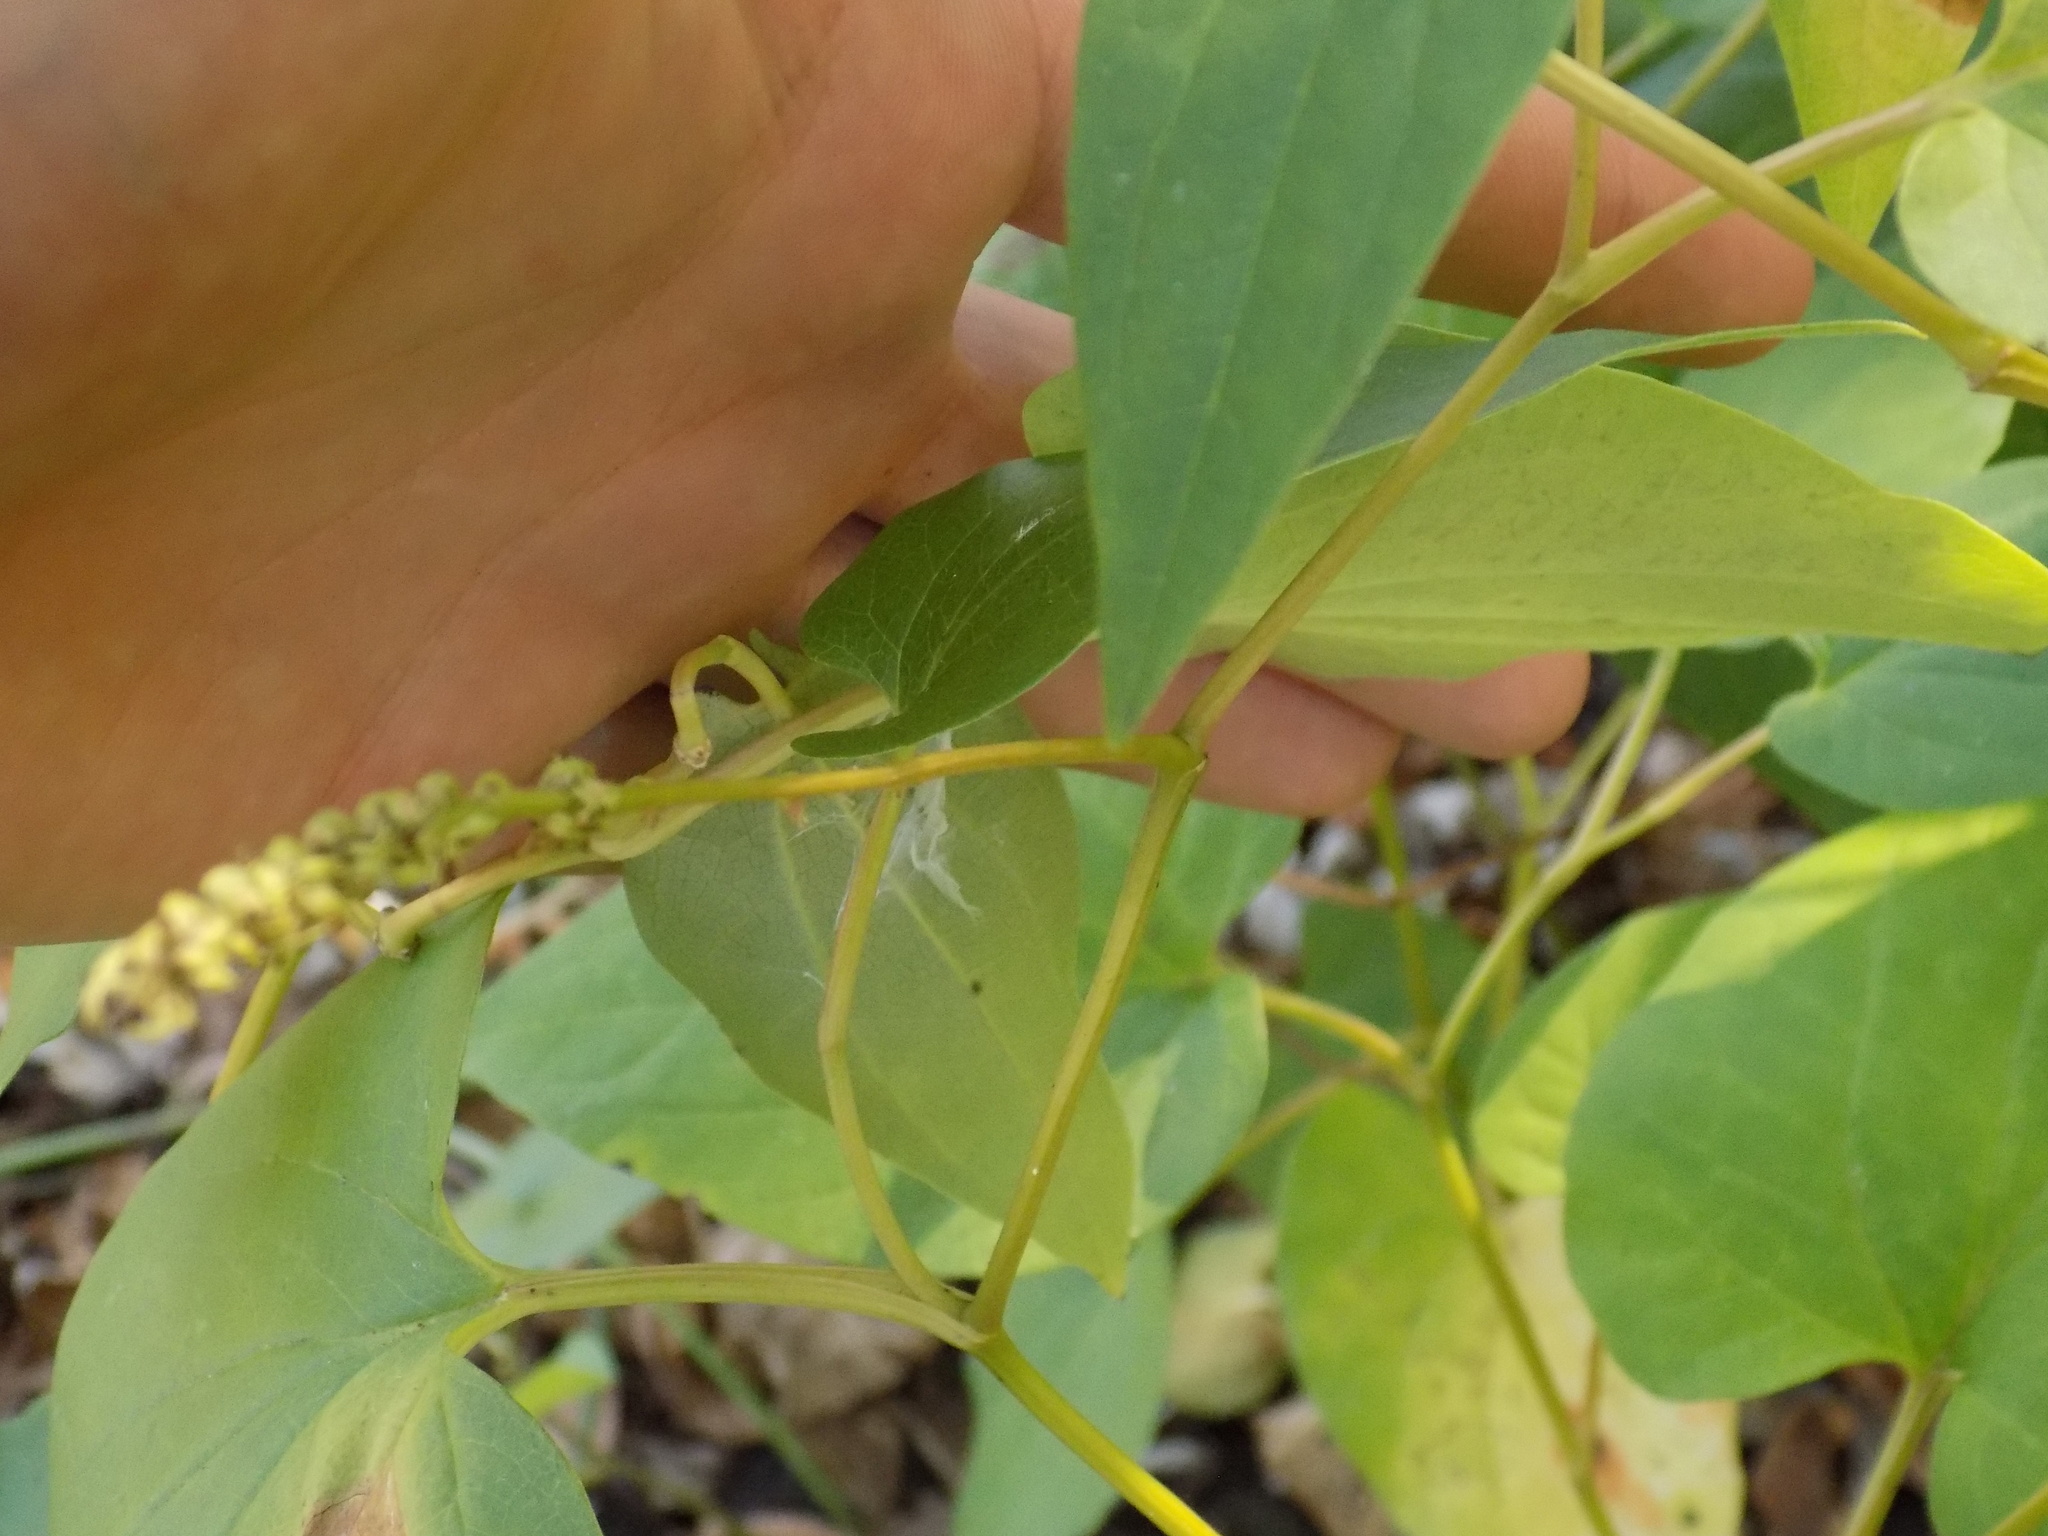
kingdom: Plantae
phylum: Tracheophyta
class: Magnoliopsida
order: Piperales
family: Saururaceae
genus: Saururus
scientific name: Saururus cernuus
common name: Lizard's-tail
